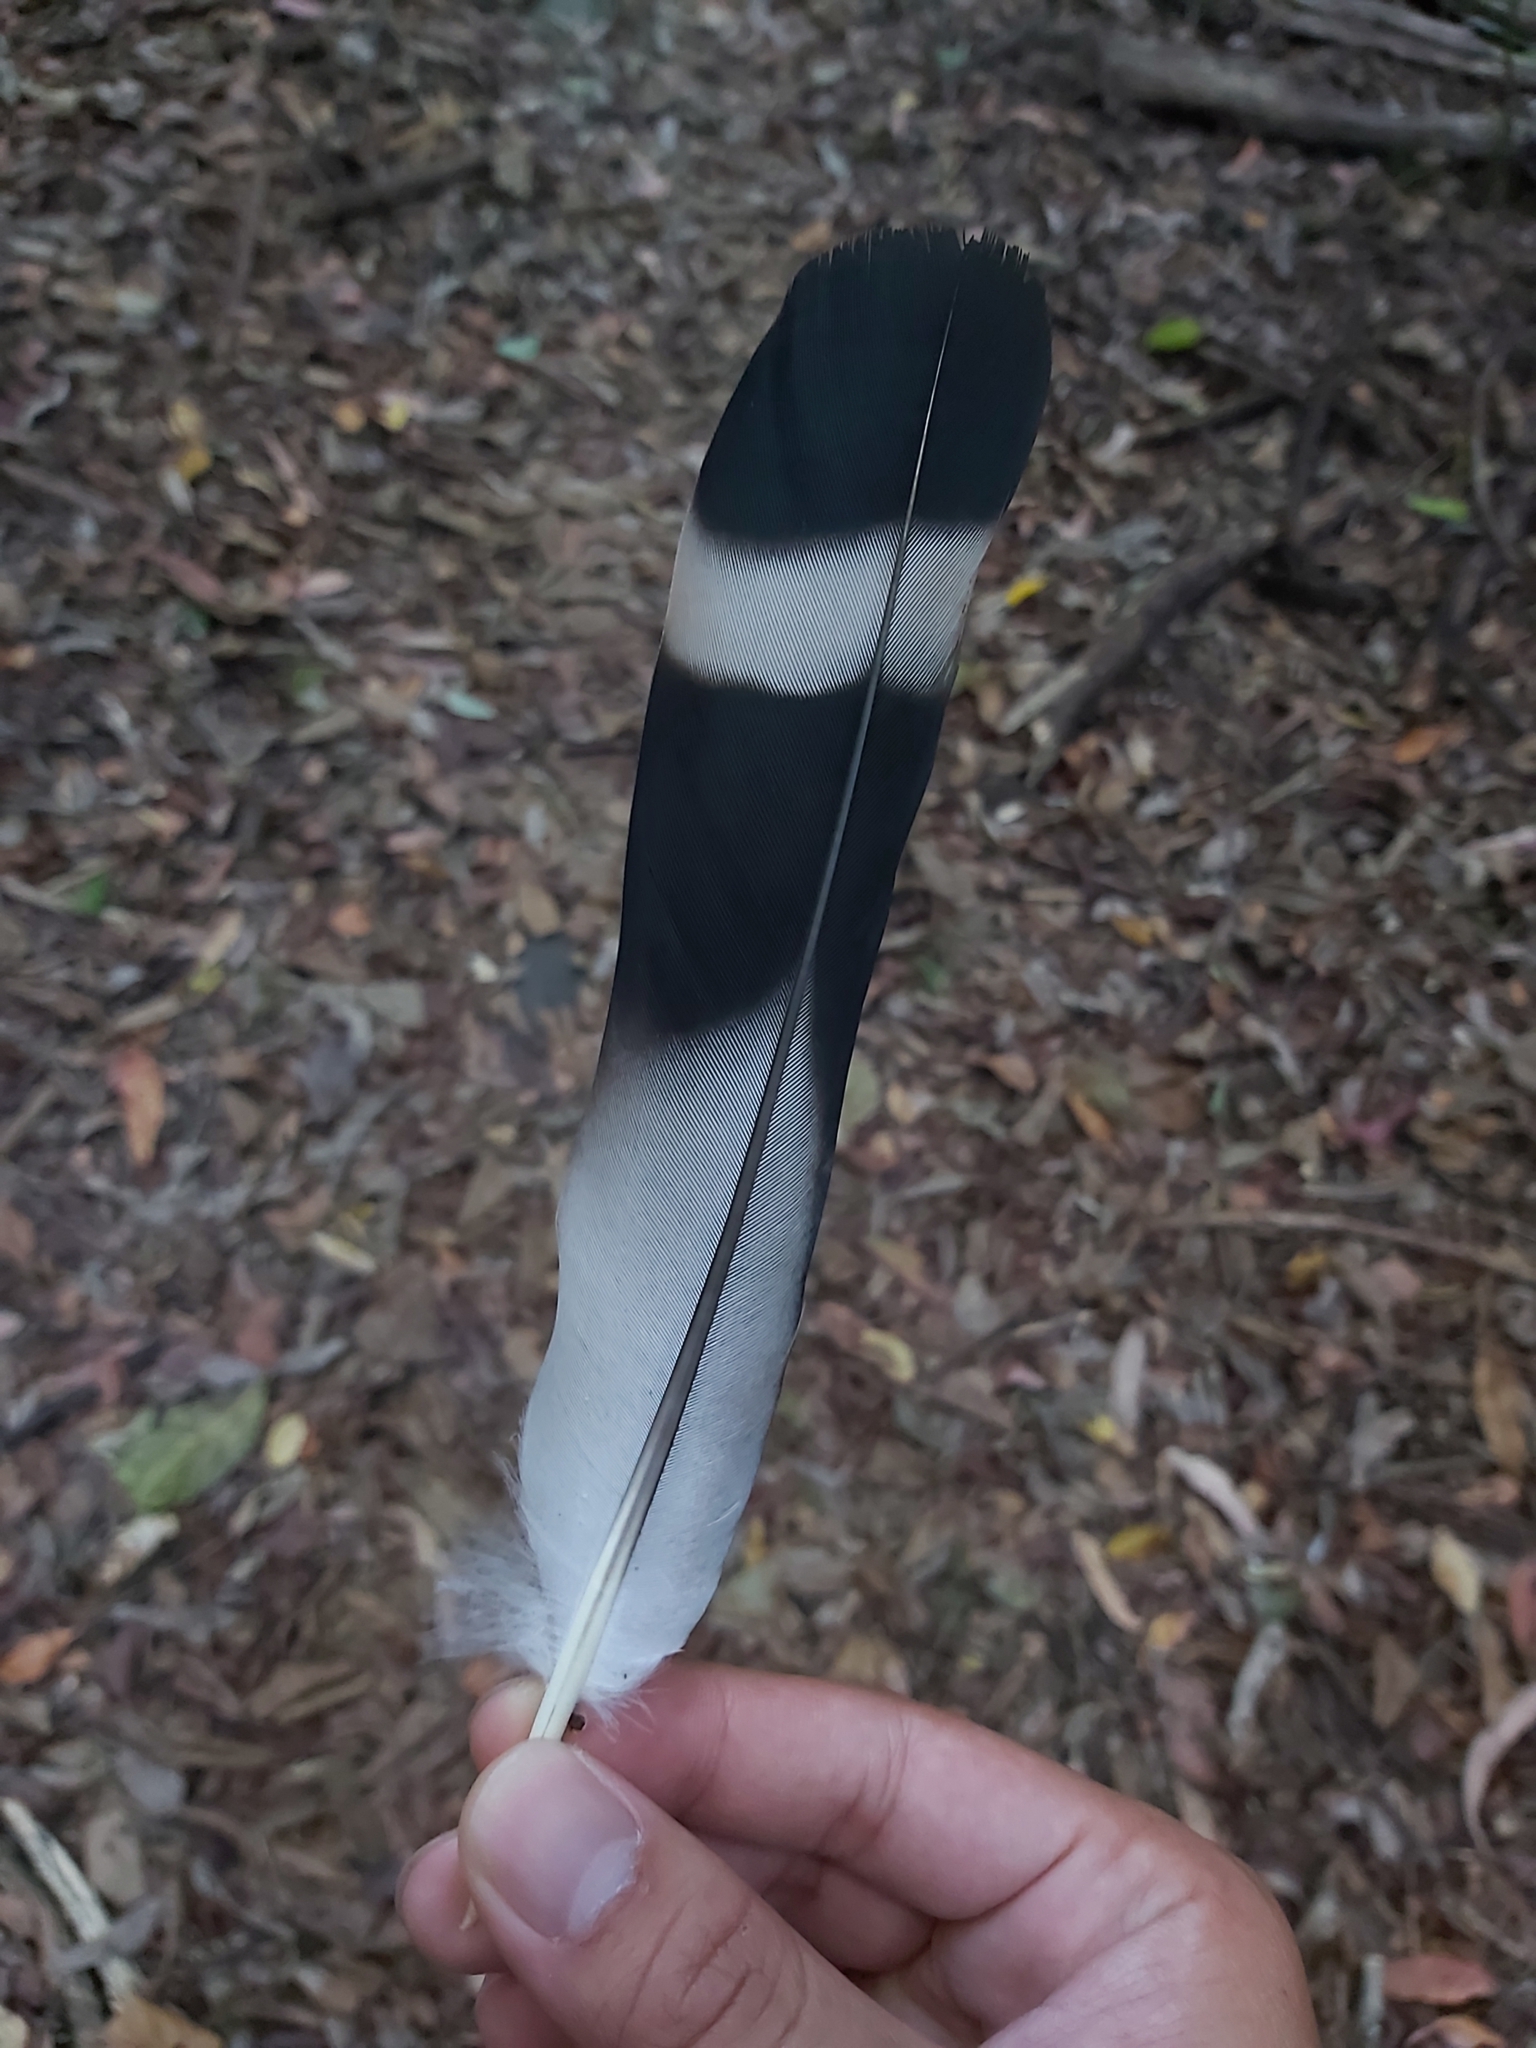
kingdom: Animalia
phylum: Chordata
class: Aves
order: Columbiformes
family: Columbidae
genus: Lopholaimus
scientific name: Lopholaimus antarcticus
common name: Topknot pigeon
